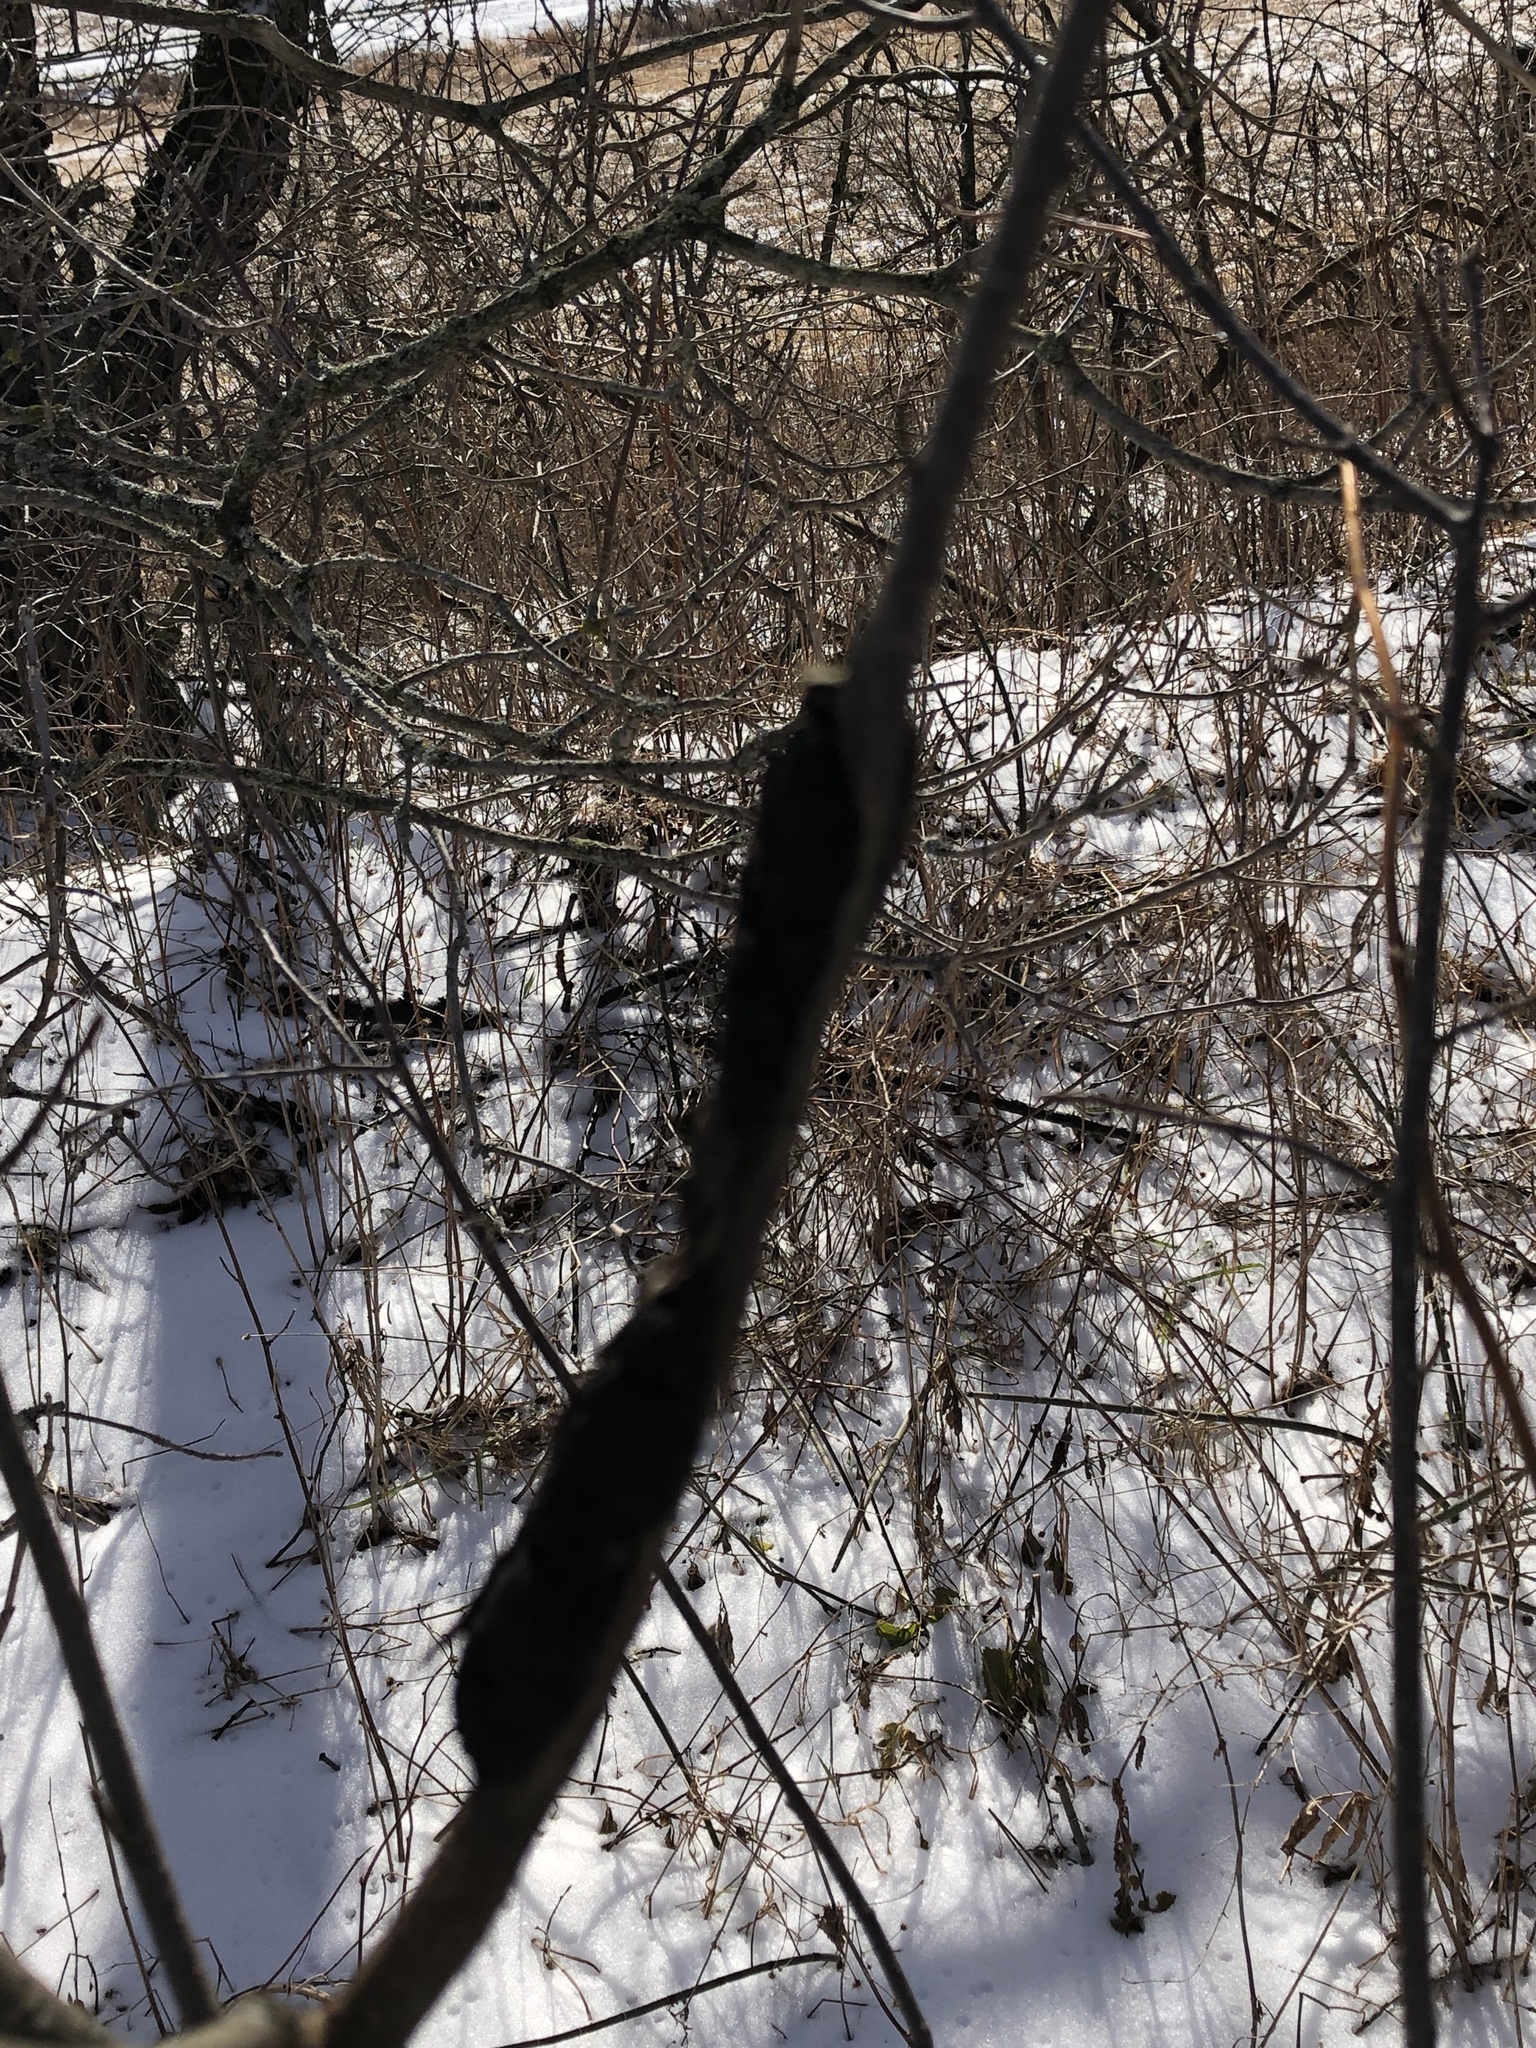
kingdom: Fungi
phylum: Ascomycota
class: Dothideomycetes
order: Venturiales
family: Venturiaceae
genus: Apiosporina
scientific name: Apiosporina morbosa
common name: Black knot
